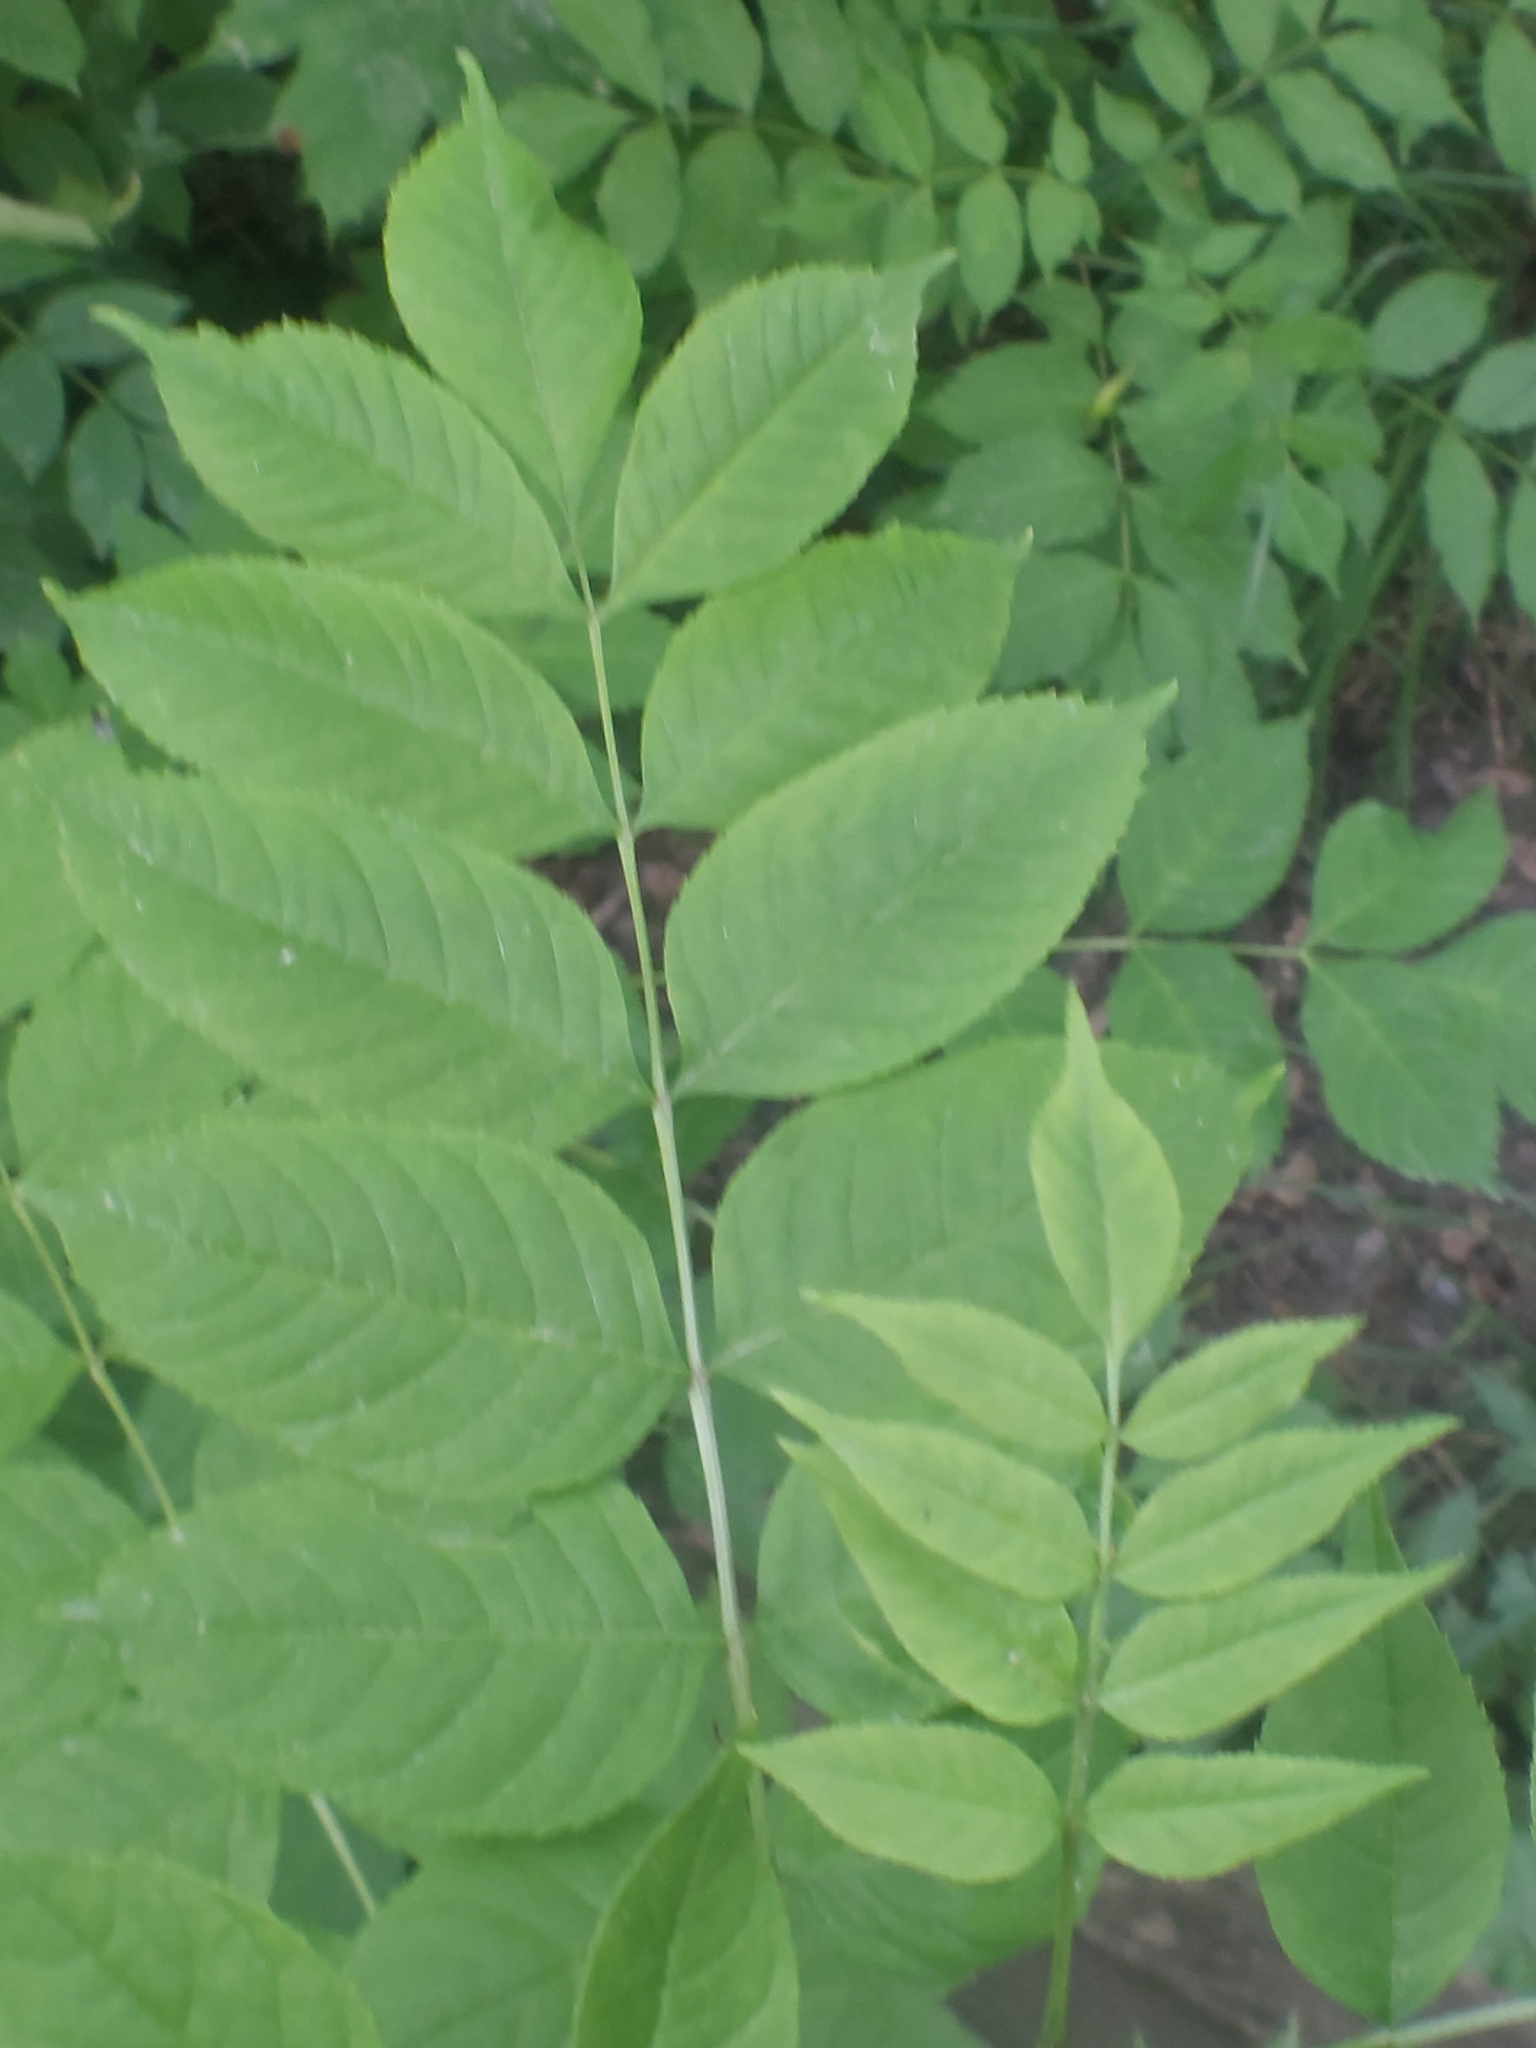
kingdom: Plantae
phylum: Tracheophyta
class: Magnoliopsida
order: Lamiales
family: Oleaceae
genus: Fraxinus
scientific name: Fraxinus excelsior
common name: European ash
